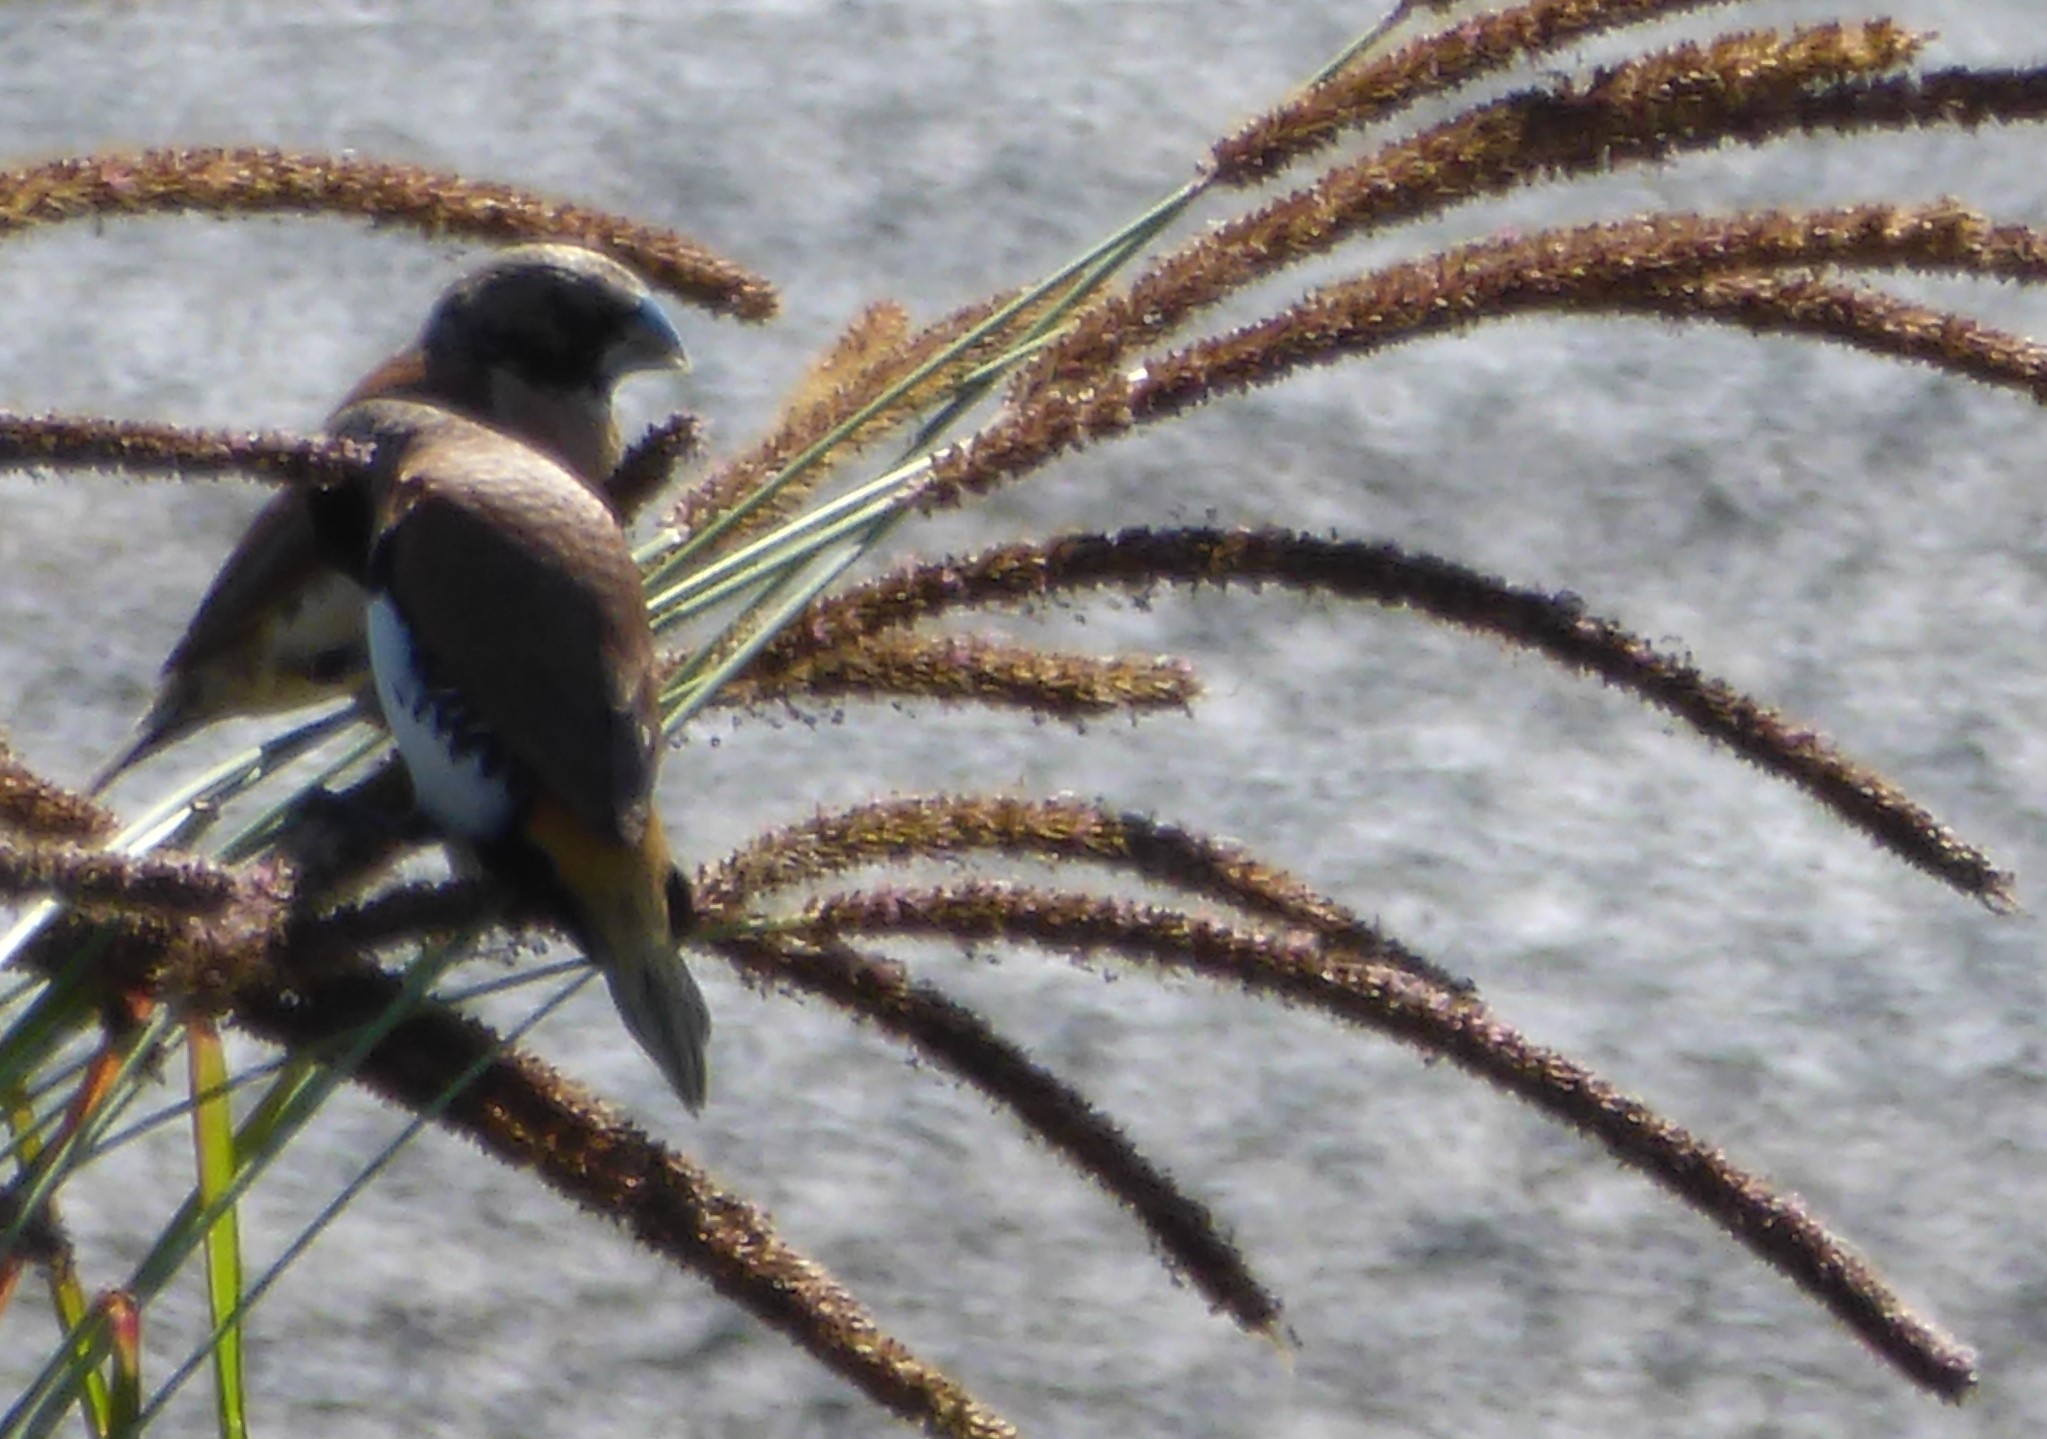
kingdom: Animalia
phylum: Chordata
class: Aves
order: Passeriformes
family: Estrildidae
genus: Lonchura
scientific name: Lonchura castaneothorax
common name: Chestnut-breasted mannikin
